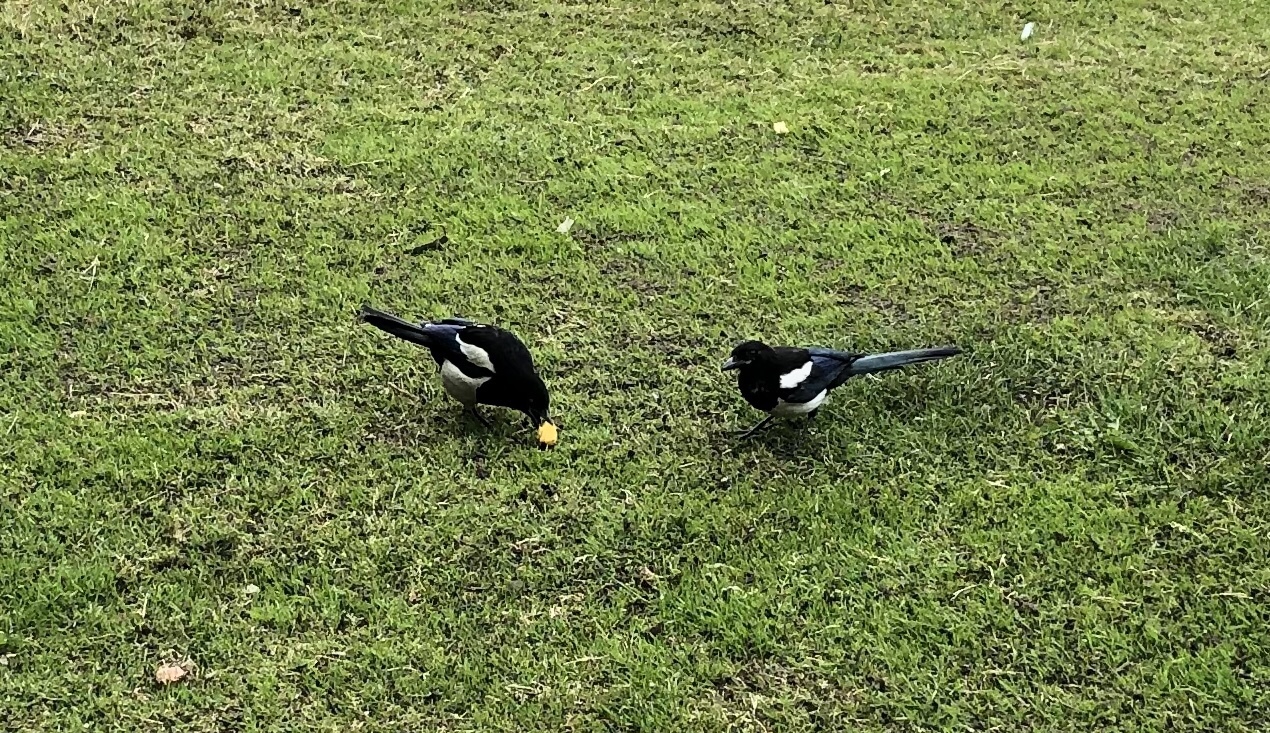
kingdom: Animalia
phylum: Chordata
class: Aves
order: Passeriformes
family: Corvidae
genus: Pica
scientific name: Pica pica
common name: Eurasian magpie
